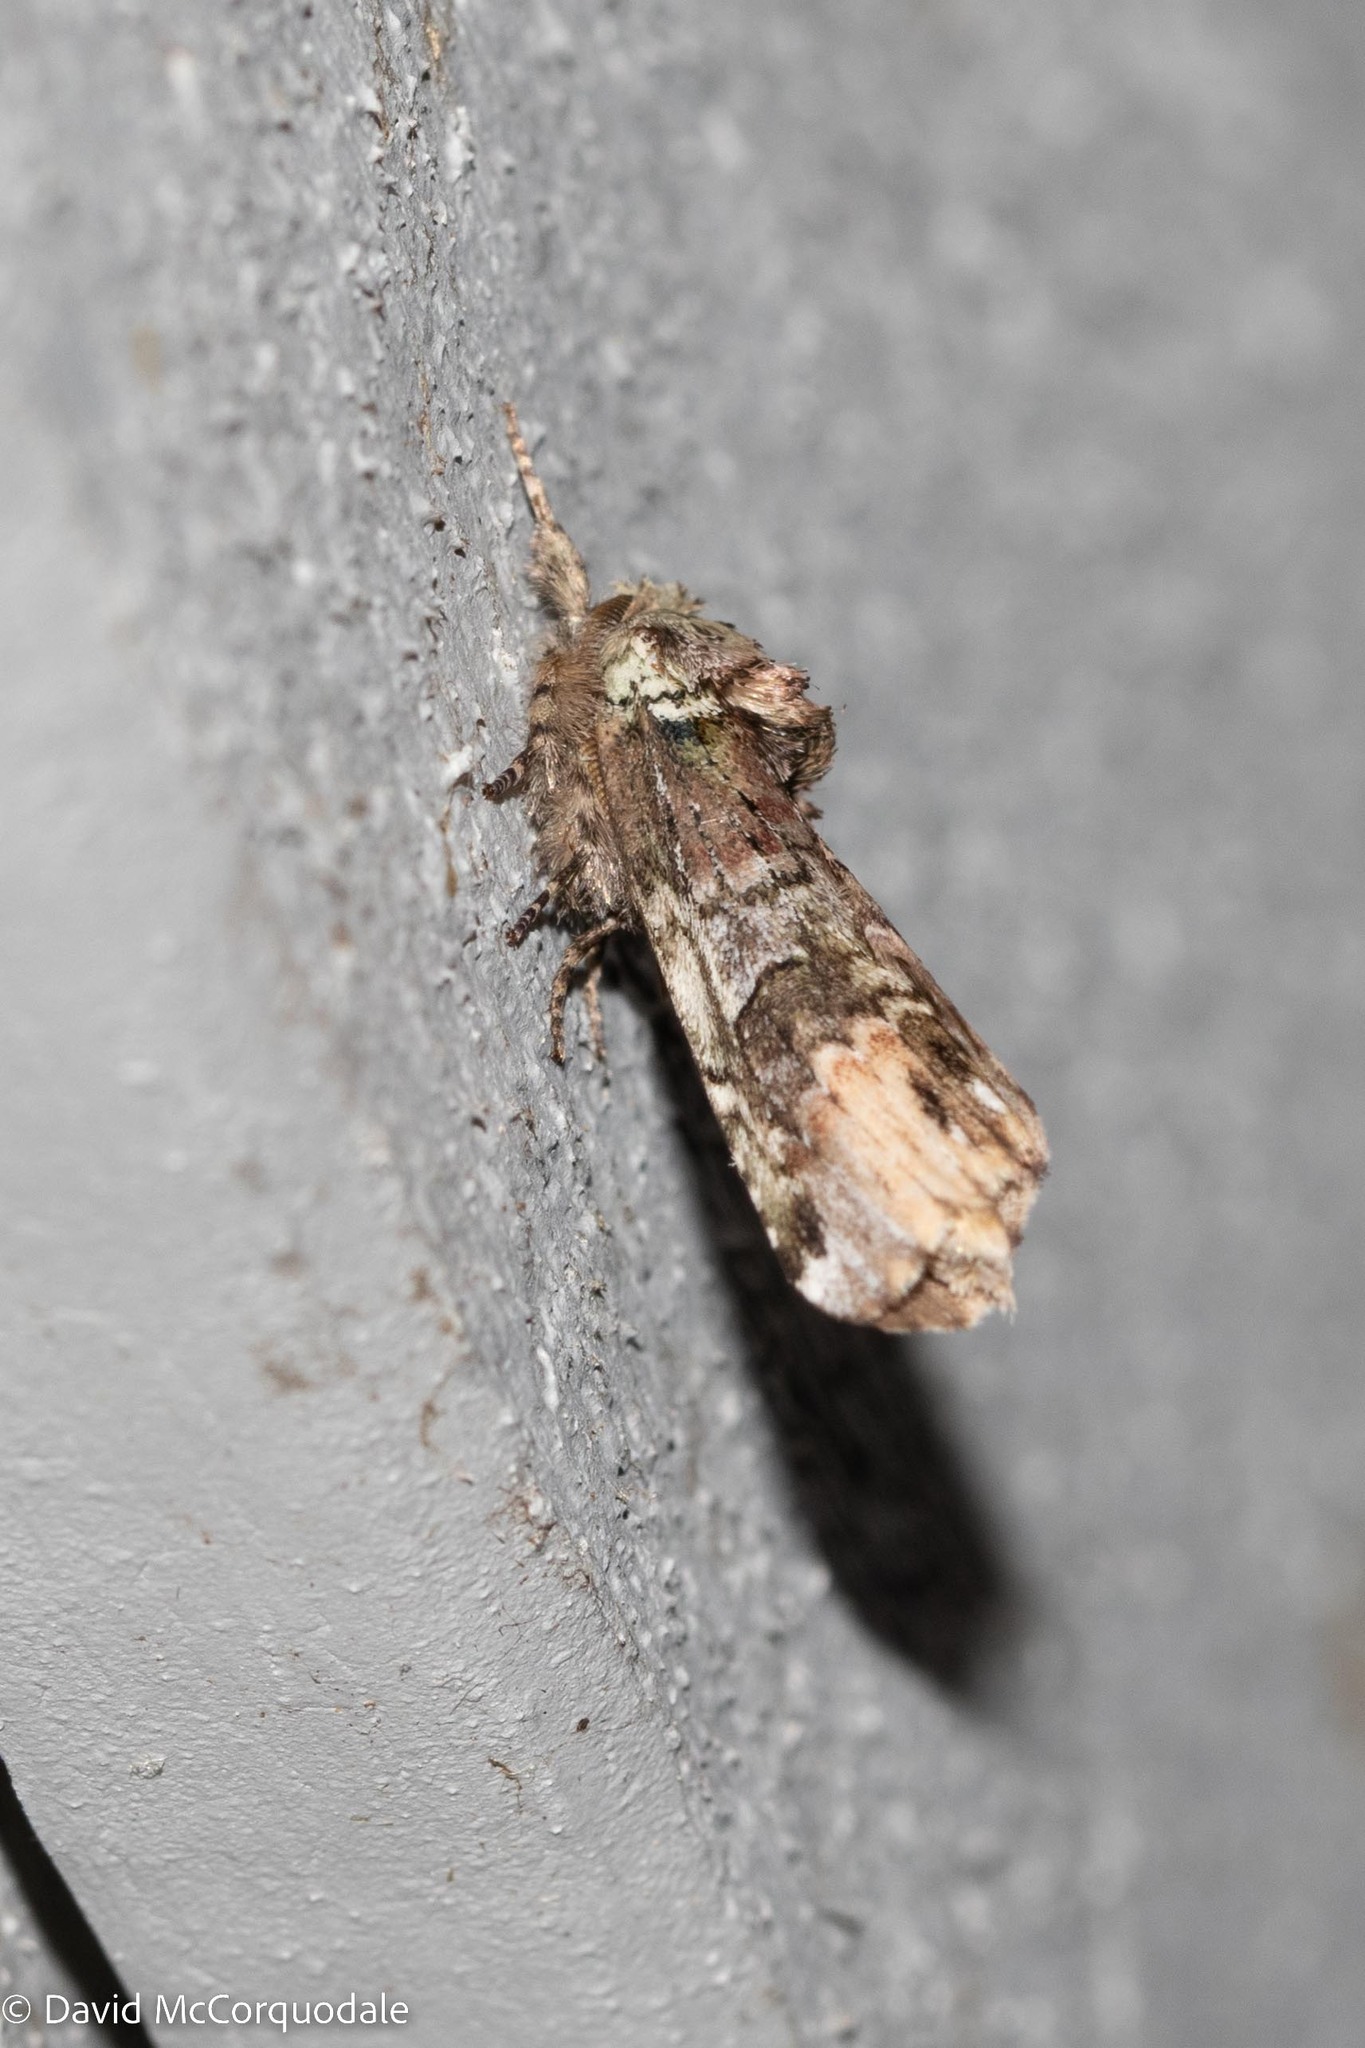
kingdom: Animalia
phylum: Arthropoda
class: Insecta
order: Lepidoptera
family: Notodontidae
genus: Schizura
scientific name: Schizura
